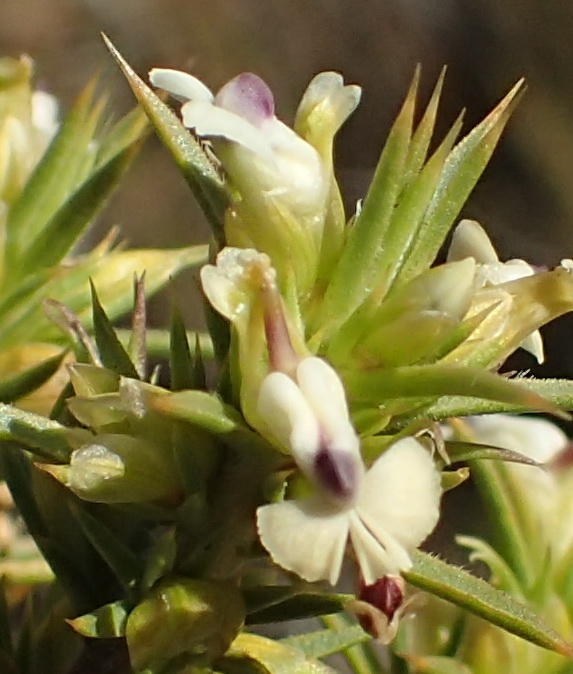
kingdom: Plantae
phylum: Tracheophyta
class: Magnoliopsida
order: Fabales
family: Polygalaceae
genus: Muraltia
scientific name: Muraltia ericifolia
